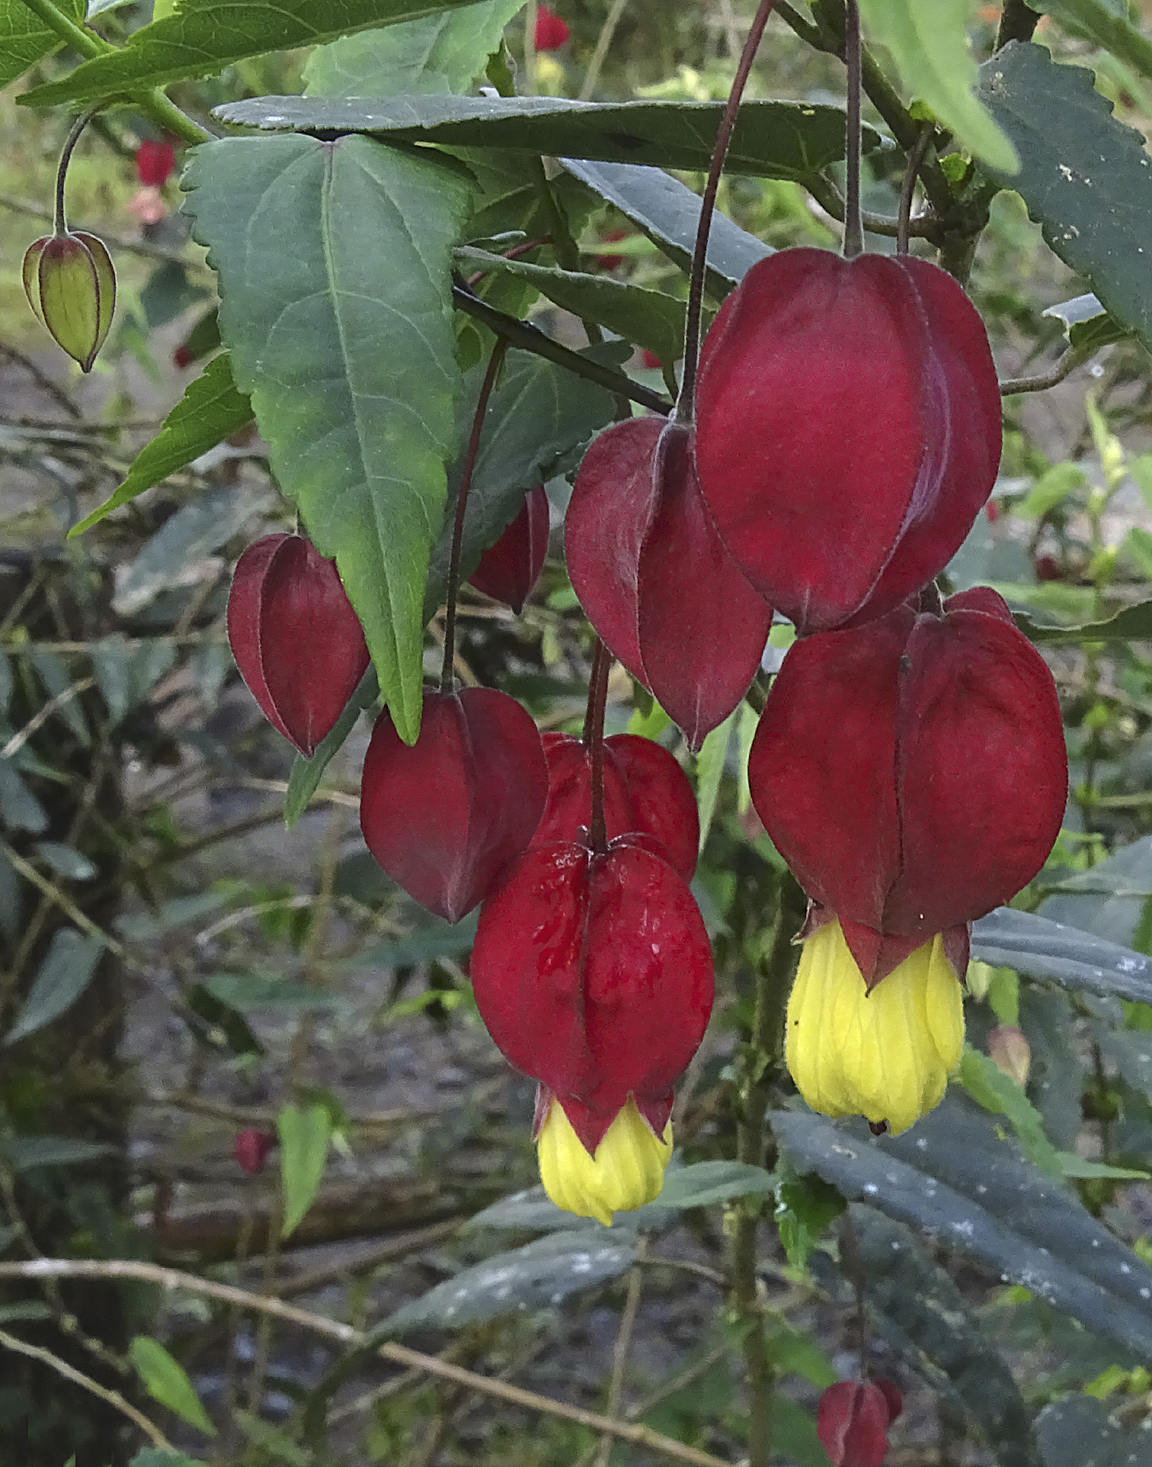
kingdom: Plantae
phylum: Tracheophyta
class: Magnoliopsida
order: Malvales
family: Malvaceae
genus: Callianthe
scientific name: Callianthe megapotamica
